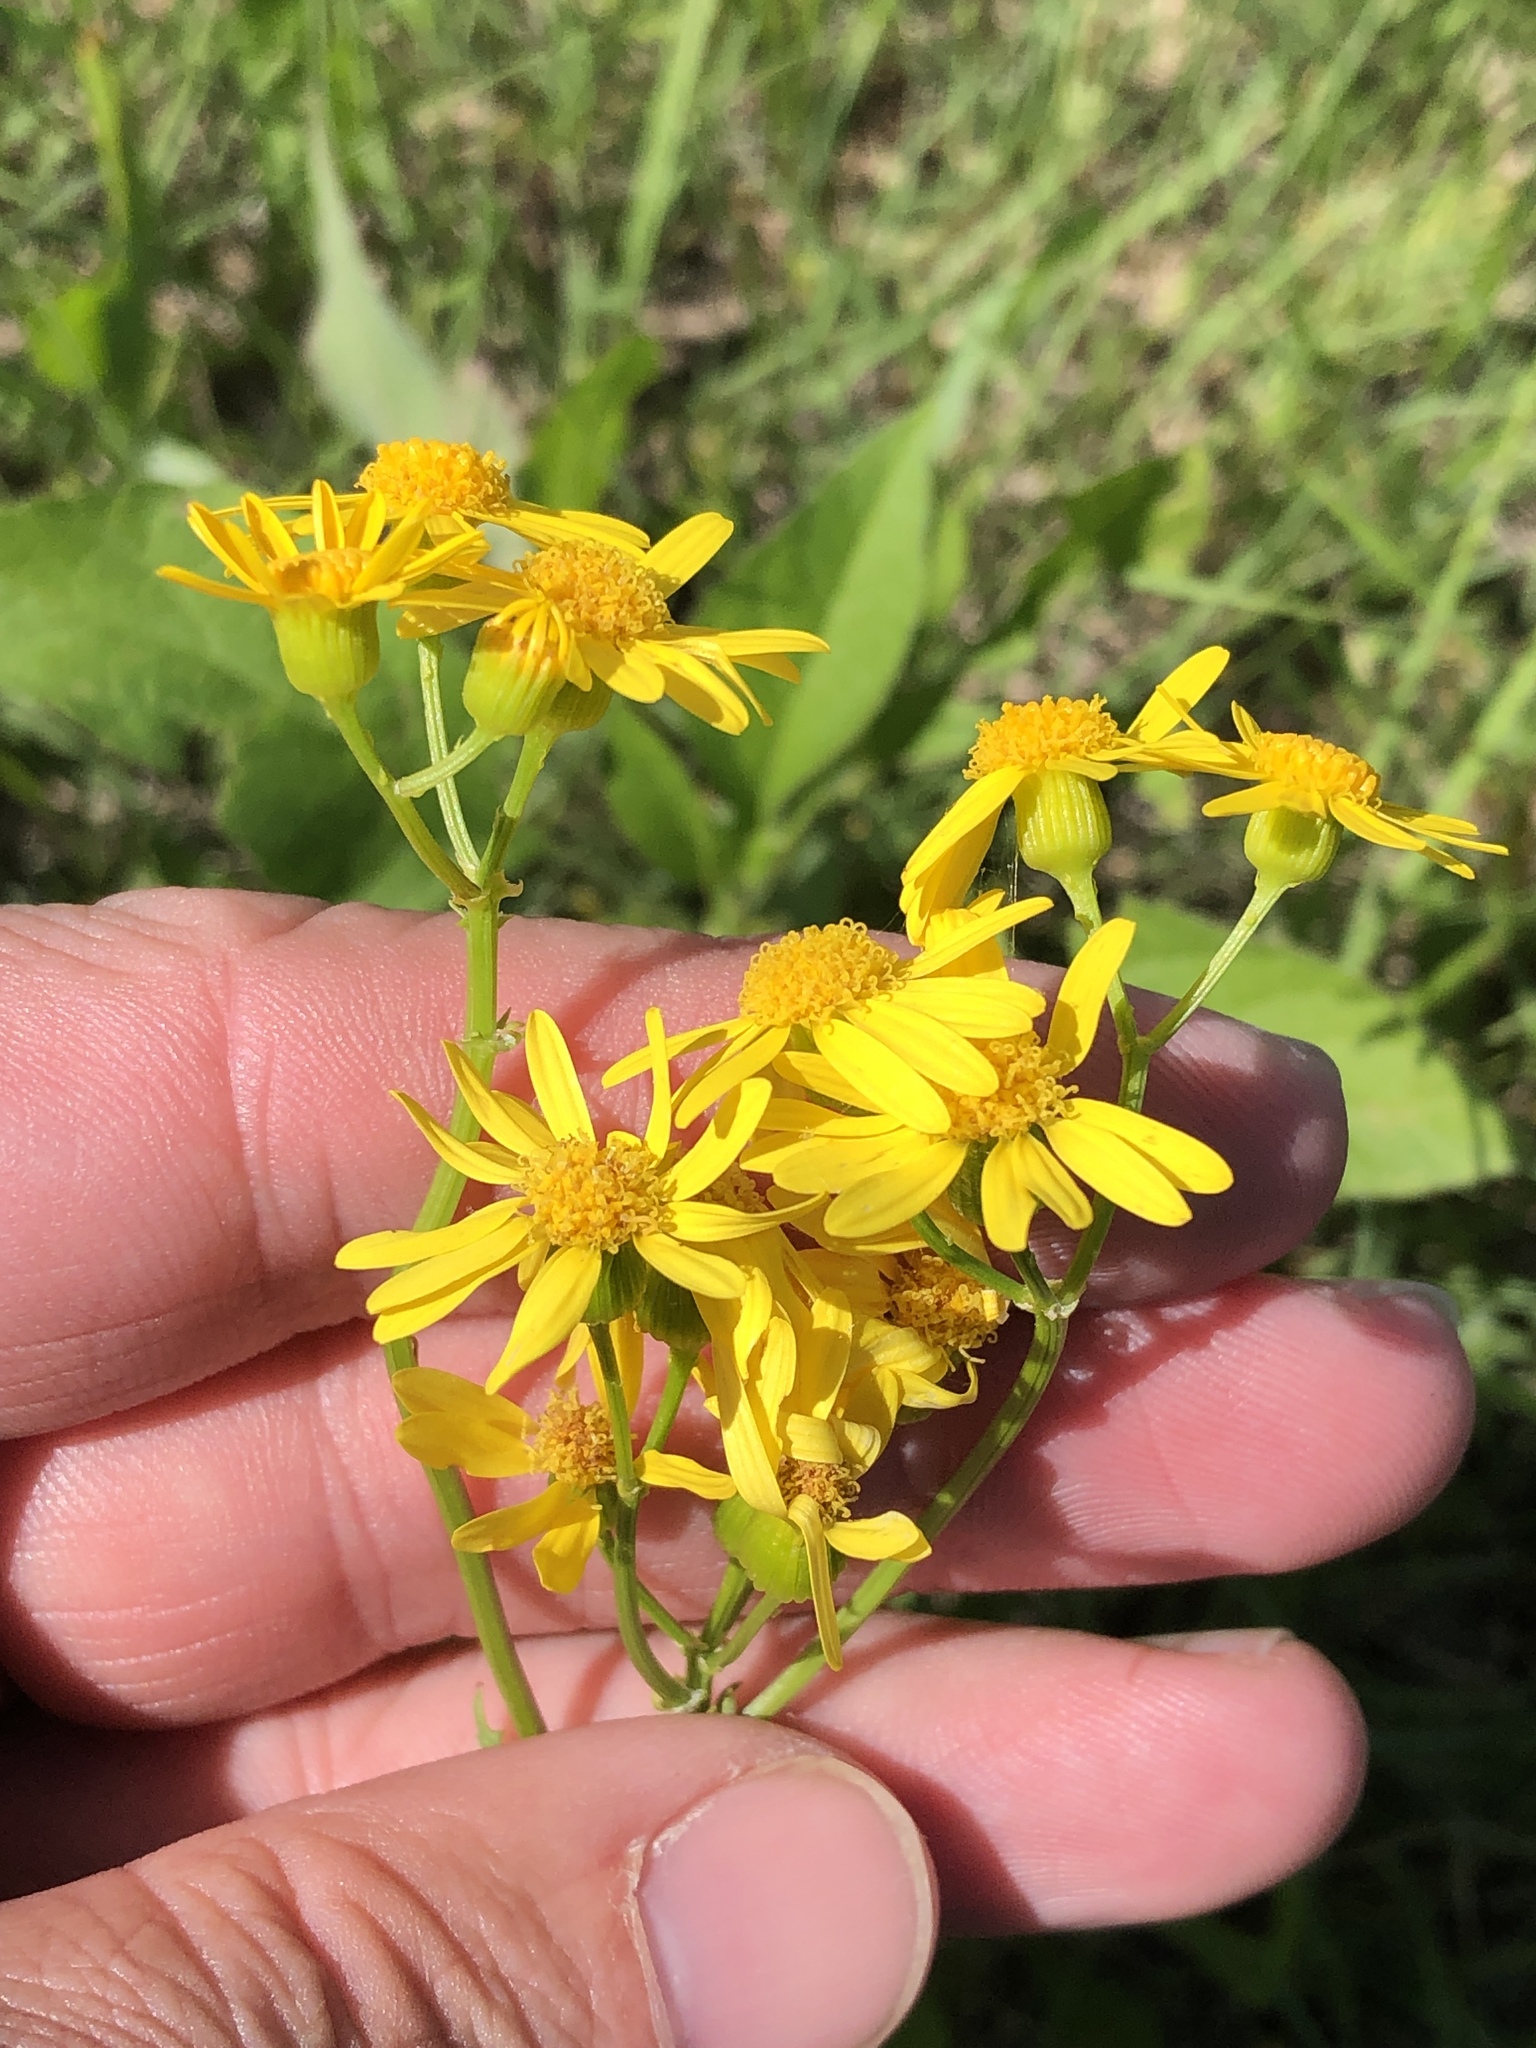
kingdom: Plantae
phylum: Tracheophyta
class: Magnoliopsida
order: Asterales
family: Asteraceae
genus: Packera
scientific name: Packera tampicana
